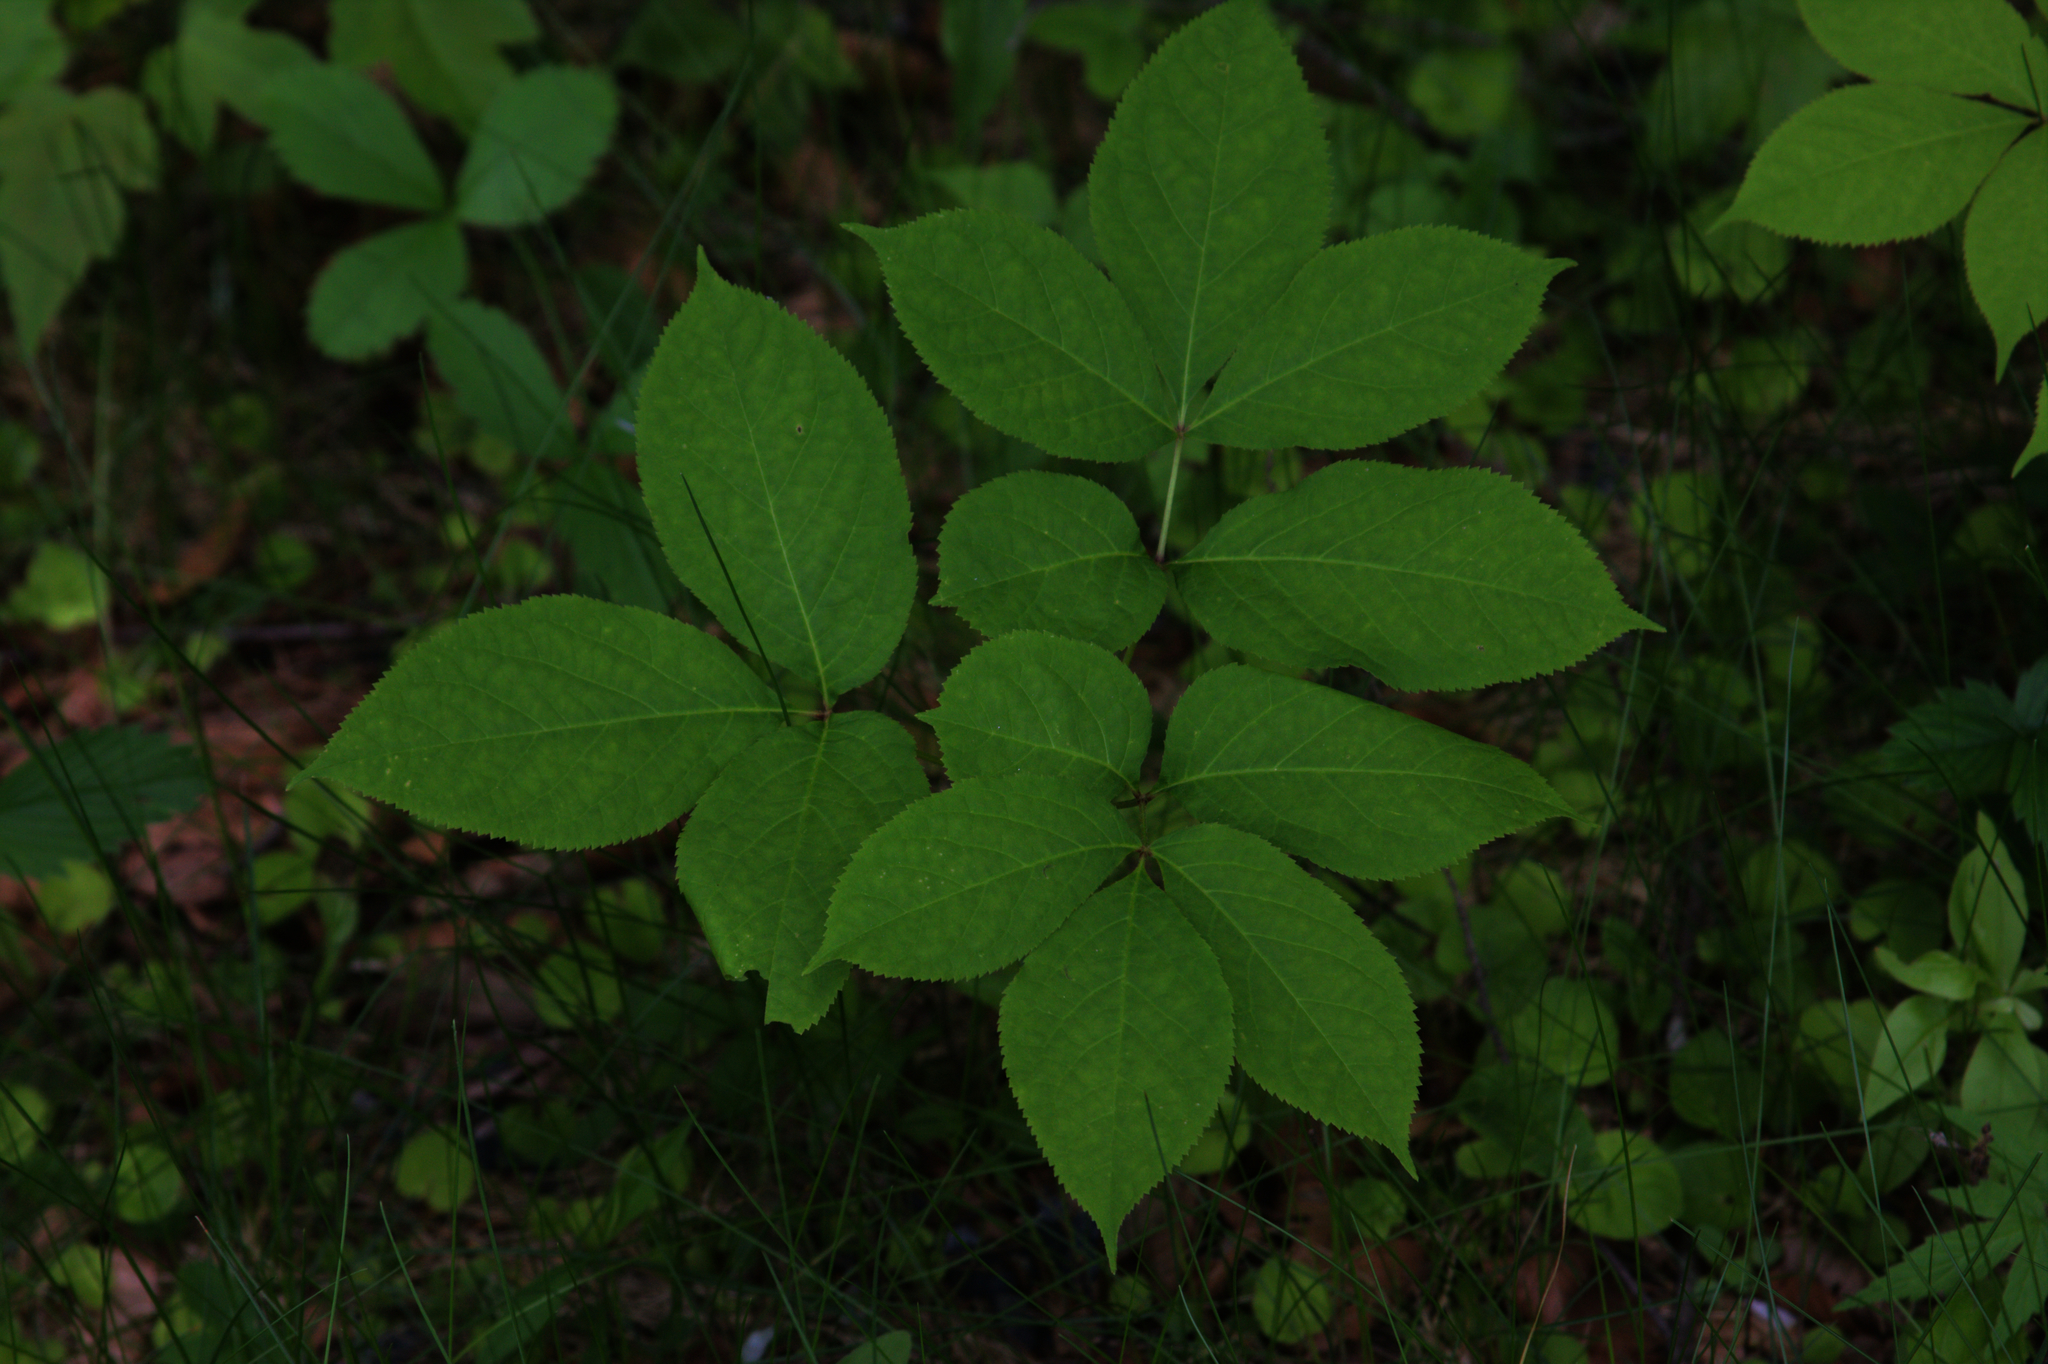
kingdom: Plantae
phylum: Tracheophyta
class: Magnoliopsida
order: Apiales
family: Araliaceae
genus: Aralia
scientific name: Aralia nudicaulis
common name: Wild sarsaparilla
